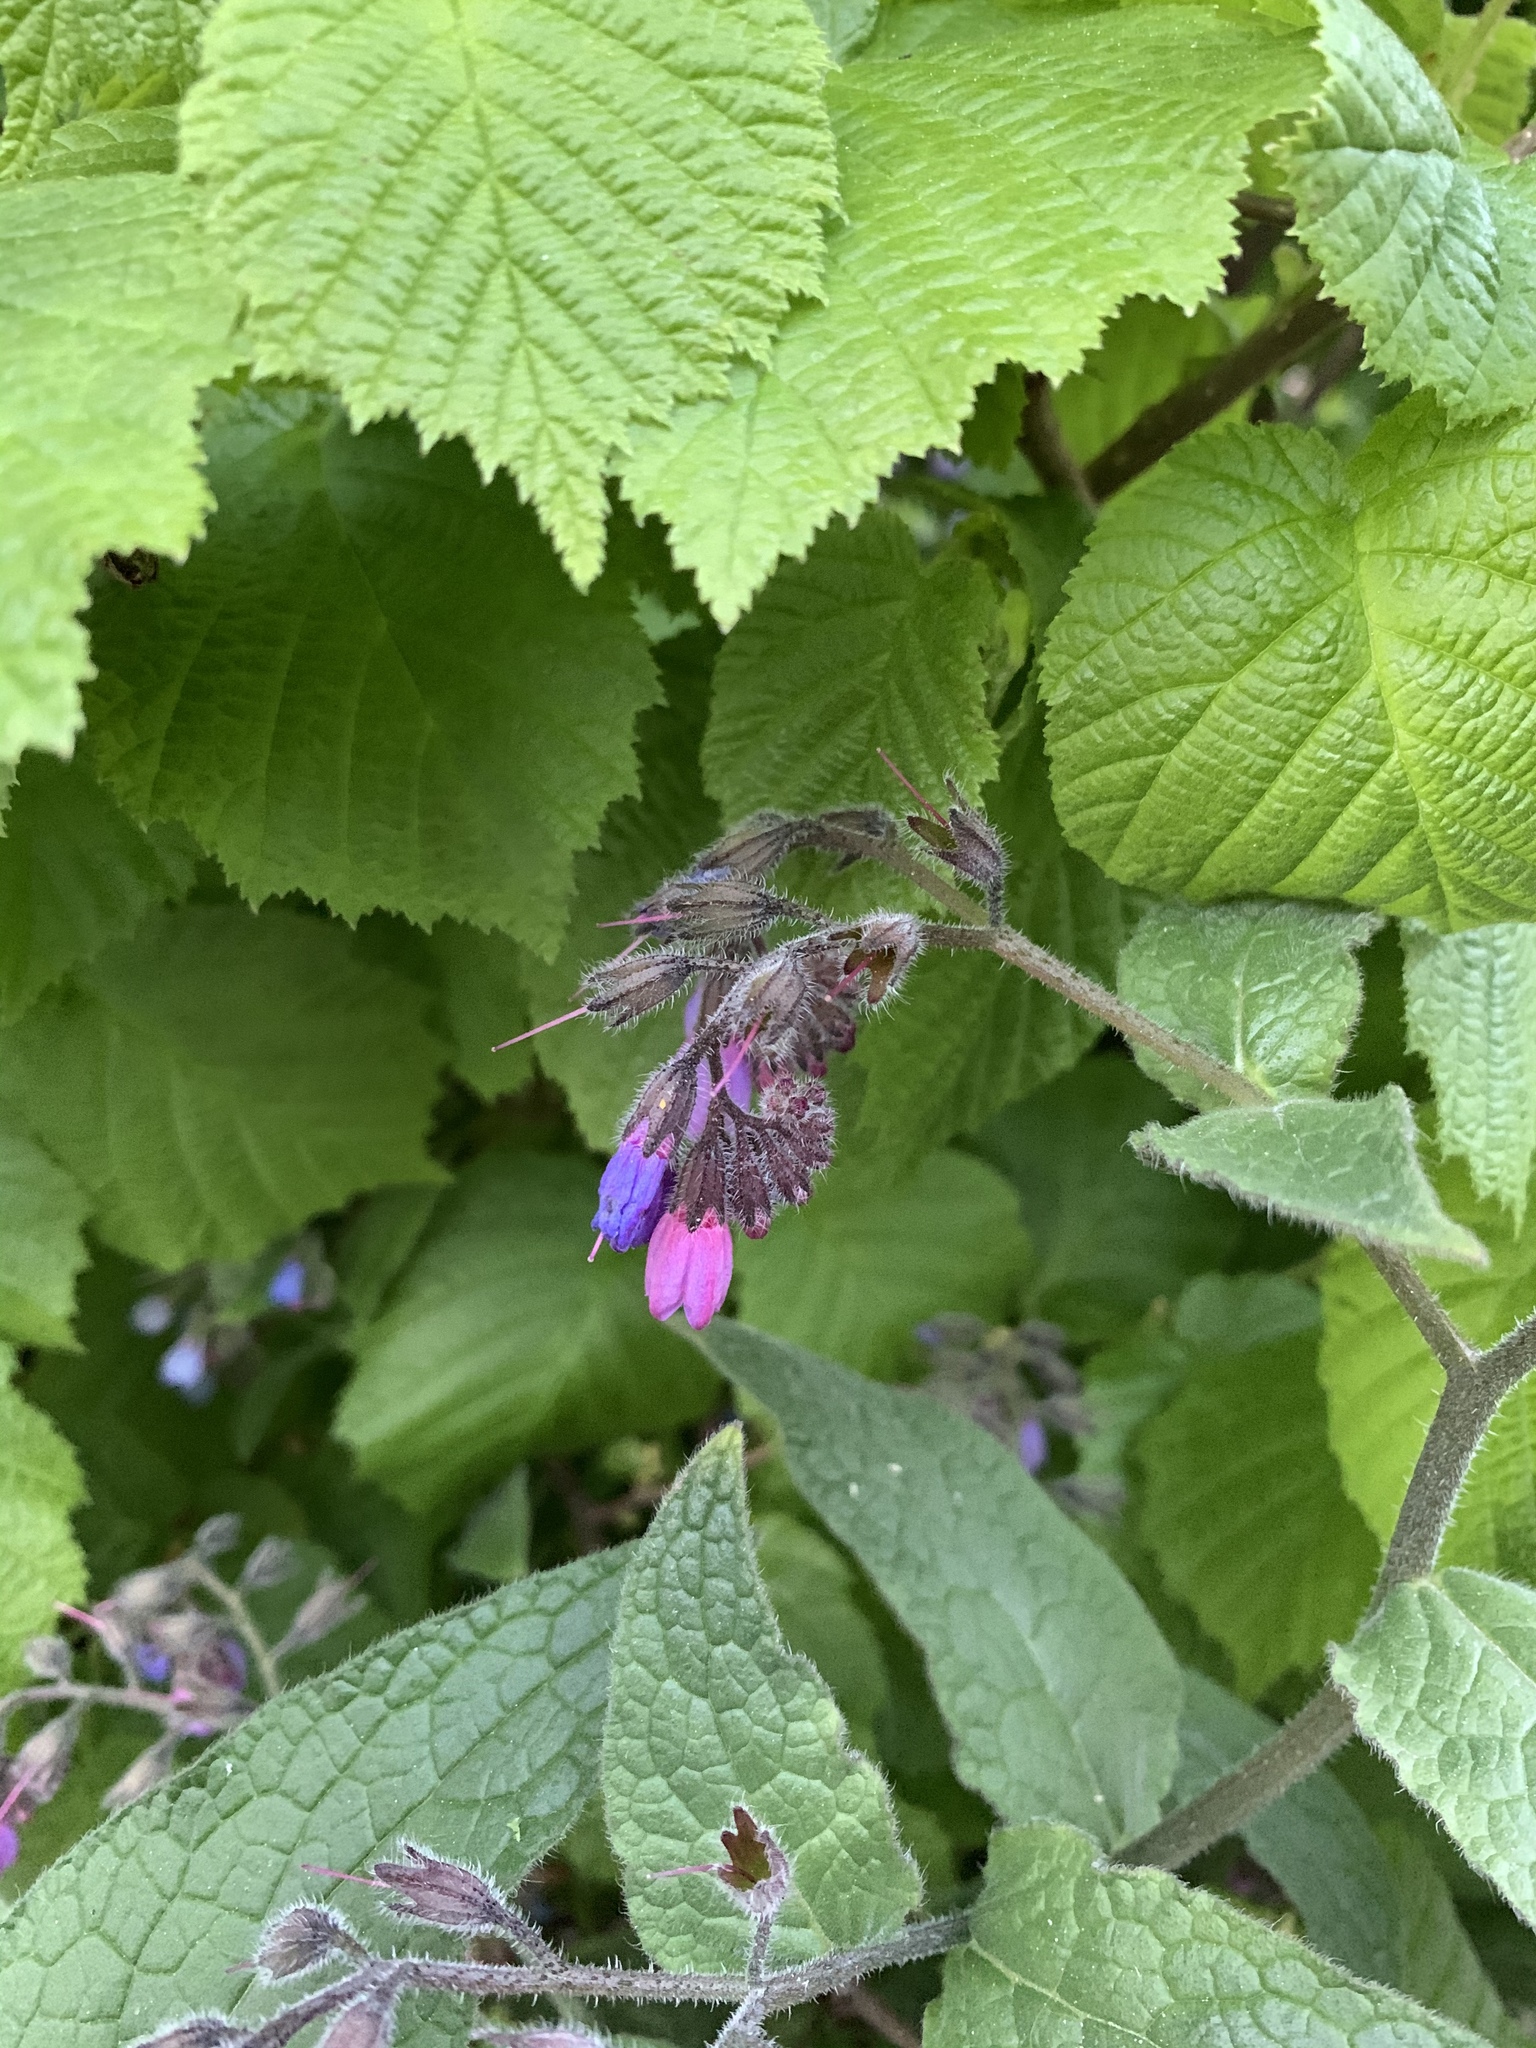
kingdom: Plantae
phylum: Tracheophyta
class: Magnoliopsida
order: Boraginales
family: Boraginaceae
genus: Symphytum
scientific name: Symphytum caucasicum
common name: Caucasian comfrey
